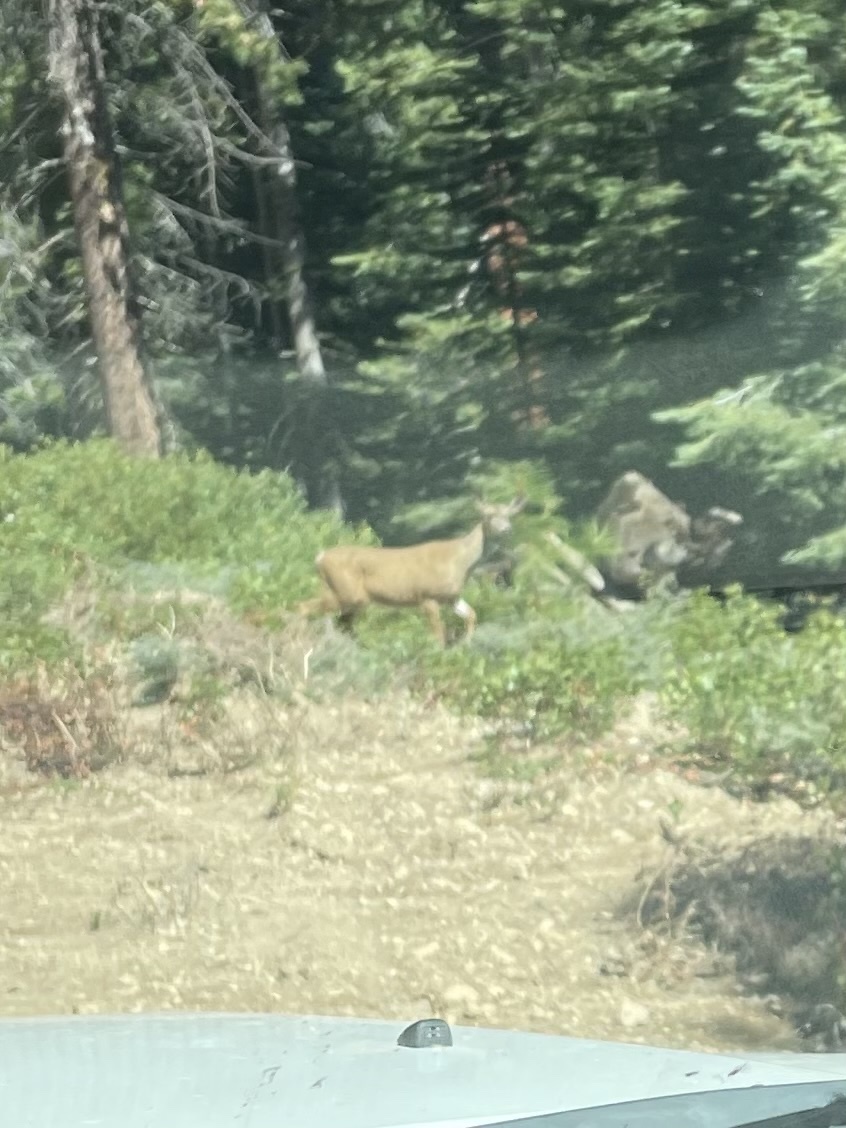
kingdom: Animalia
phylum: Chordata
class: Mammalia
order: Artiodactyla
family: Cervidae
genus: Odocoileus
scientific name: Odocoileus hemionus
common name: Mule deer
